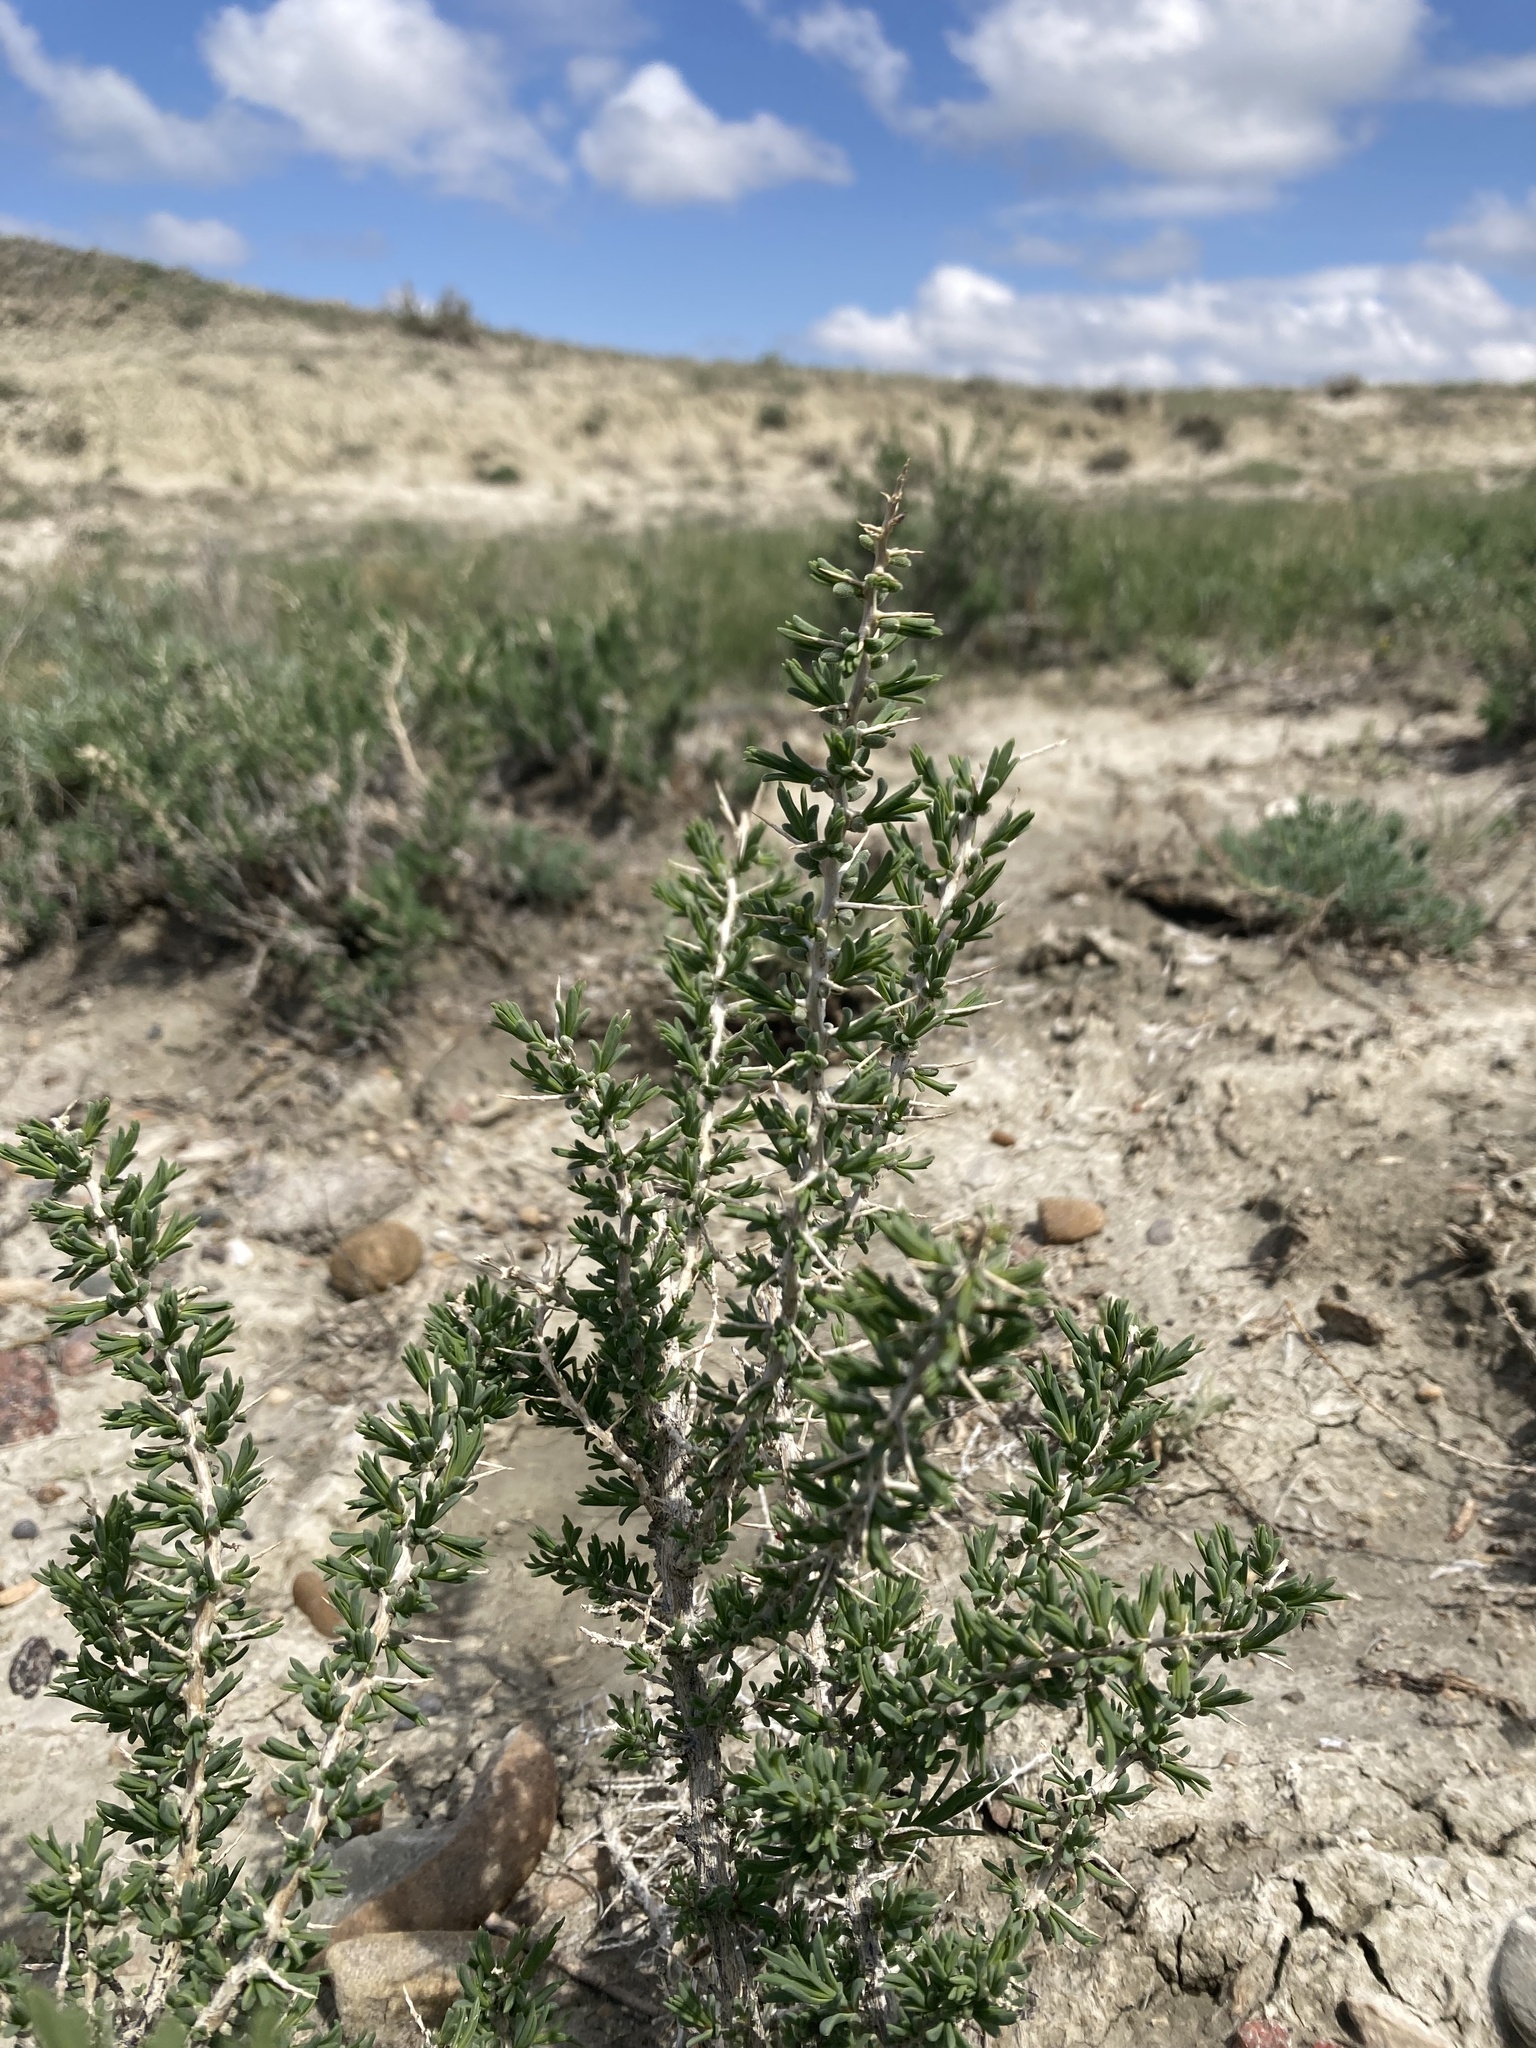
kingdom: Plantae
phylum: Tracheophyta
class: Magnoliopsida
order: Caryophyllales
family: Sarcobataceae
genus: Sarcobatus
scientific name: Sarcobatus vermiculatus
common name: Greasewood
